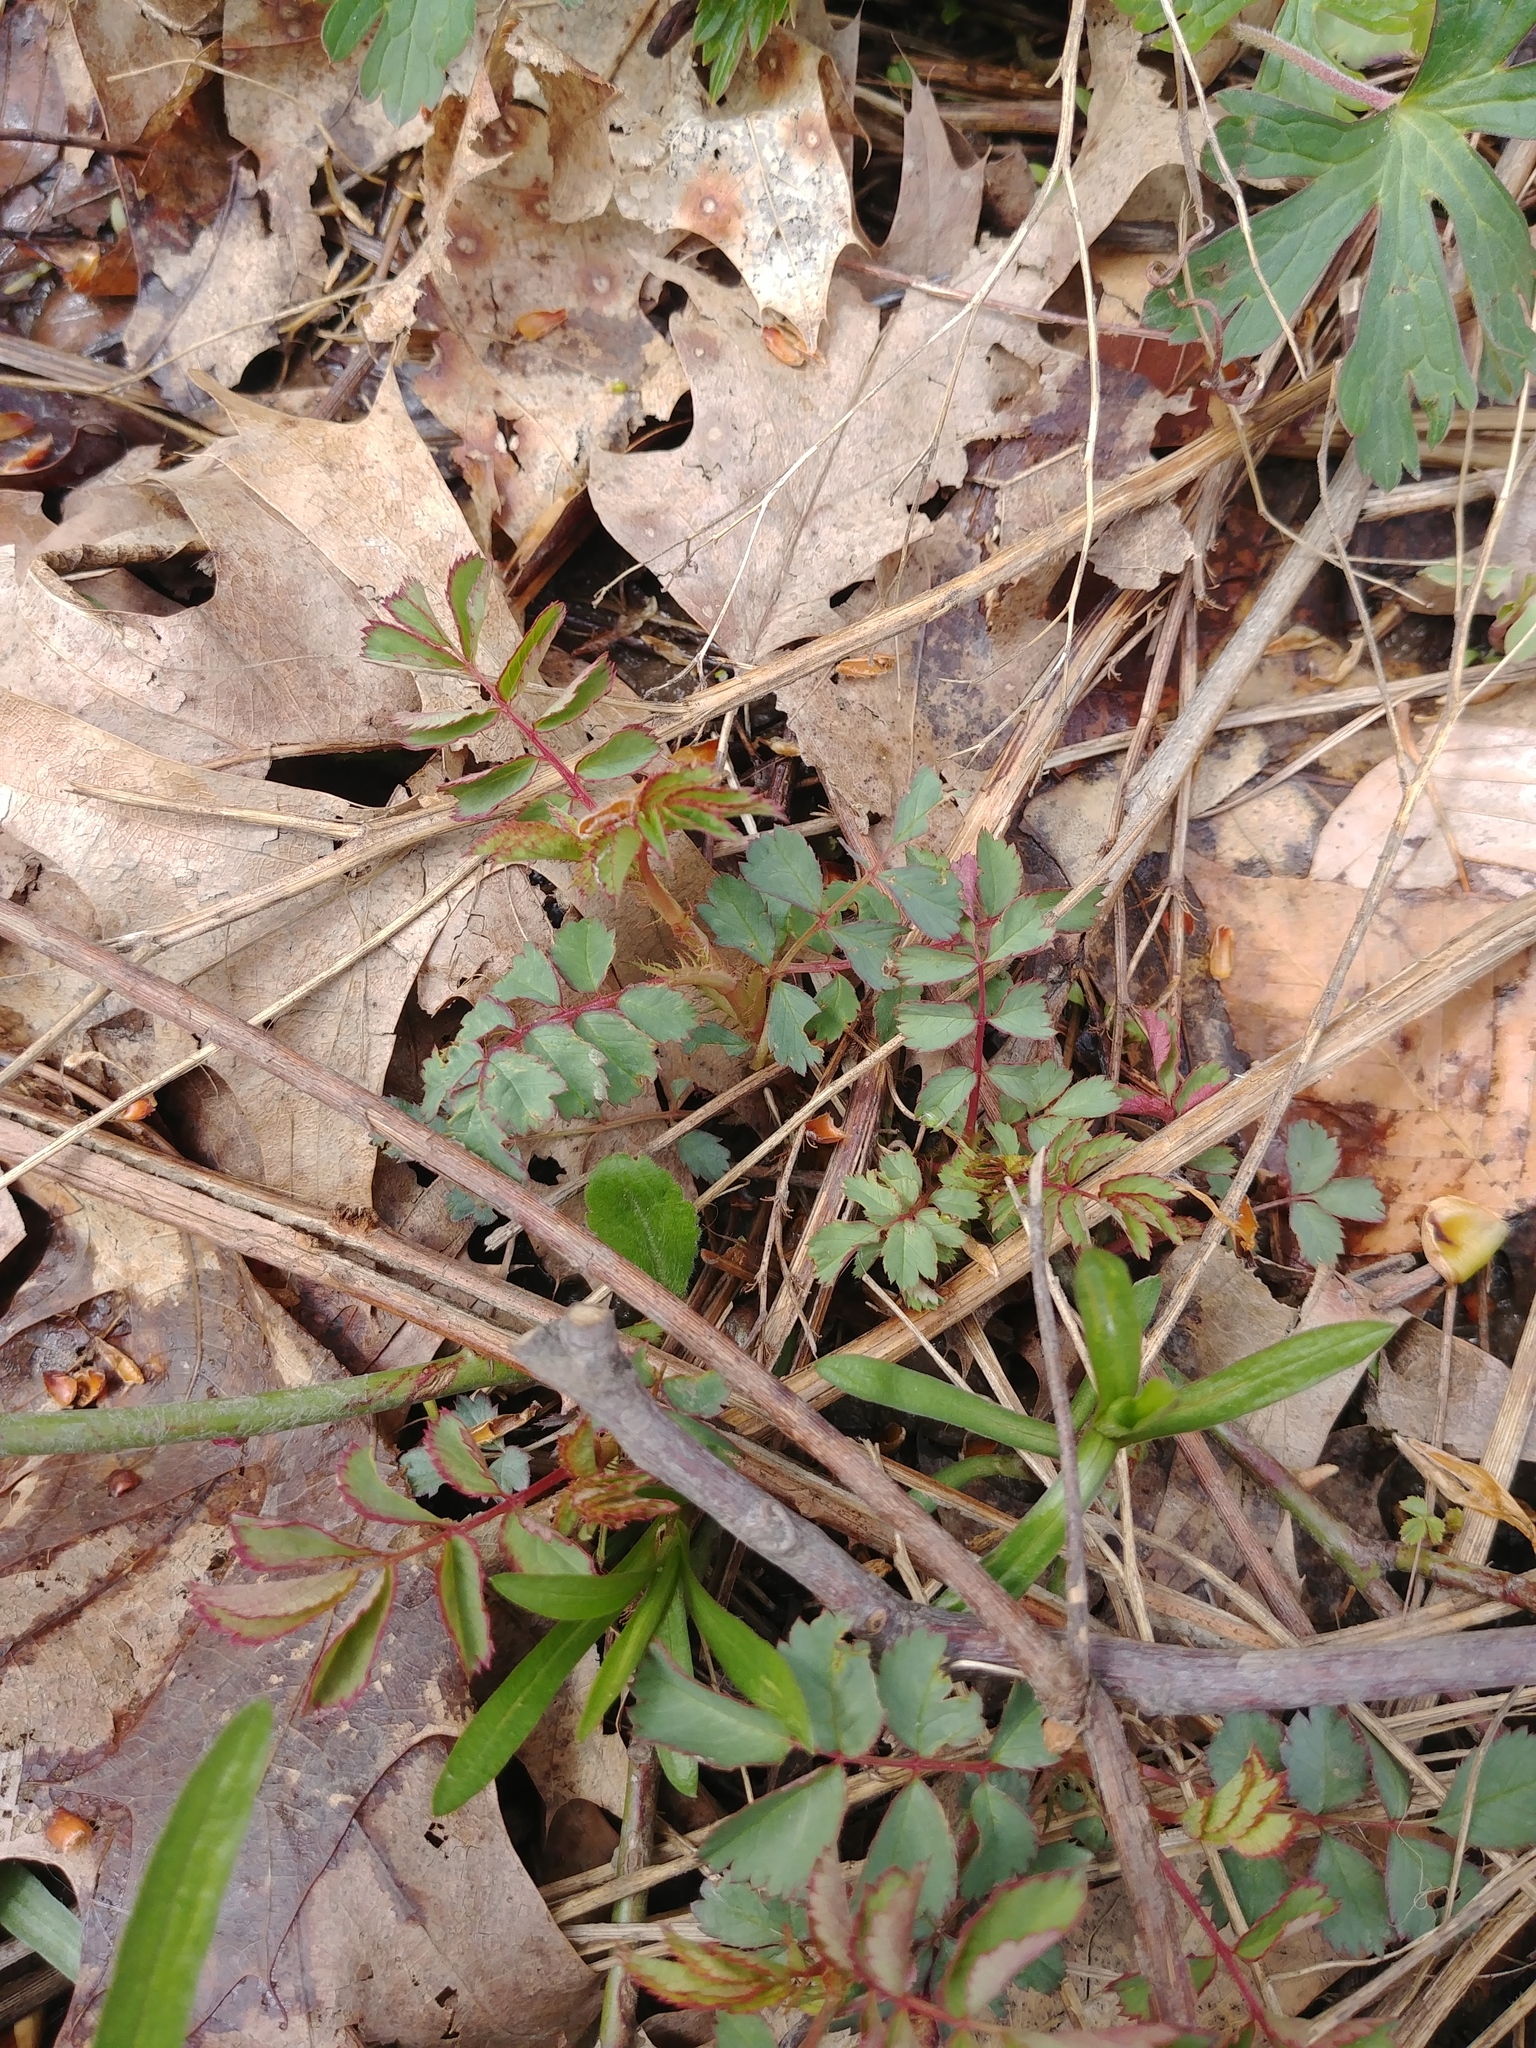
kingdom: Plantae
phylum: Tracheophyta
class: Magnoliopsida
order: Rosales
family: Rosaceae
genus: Rosa
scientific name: Rosa multiflora
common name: Multiflora rose
